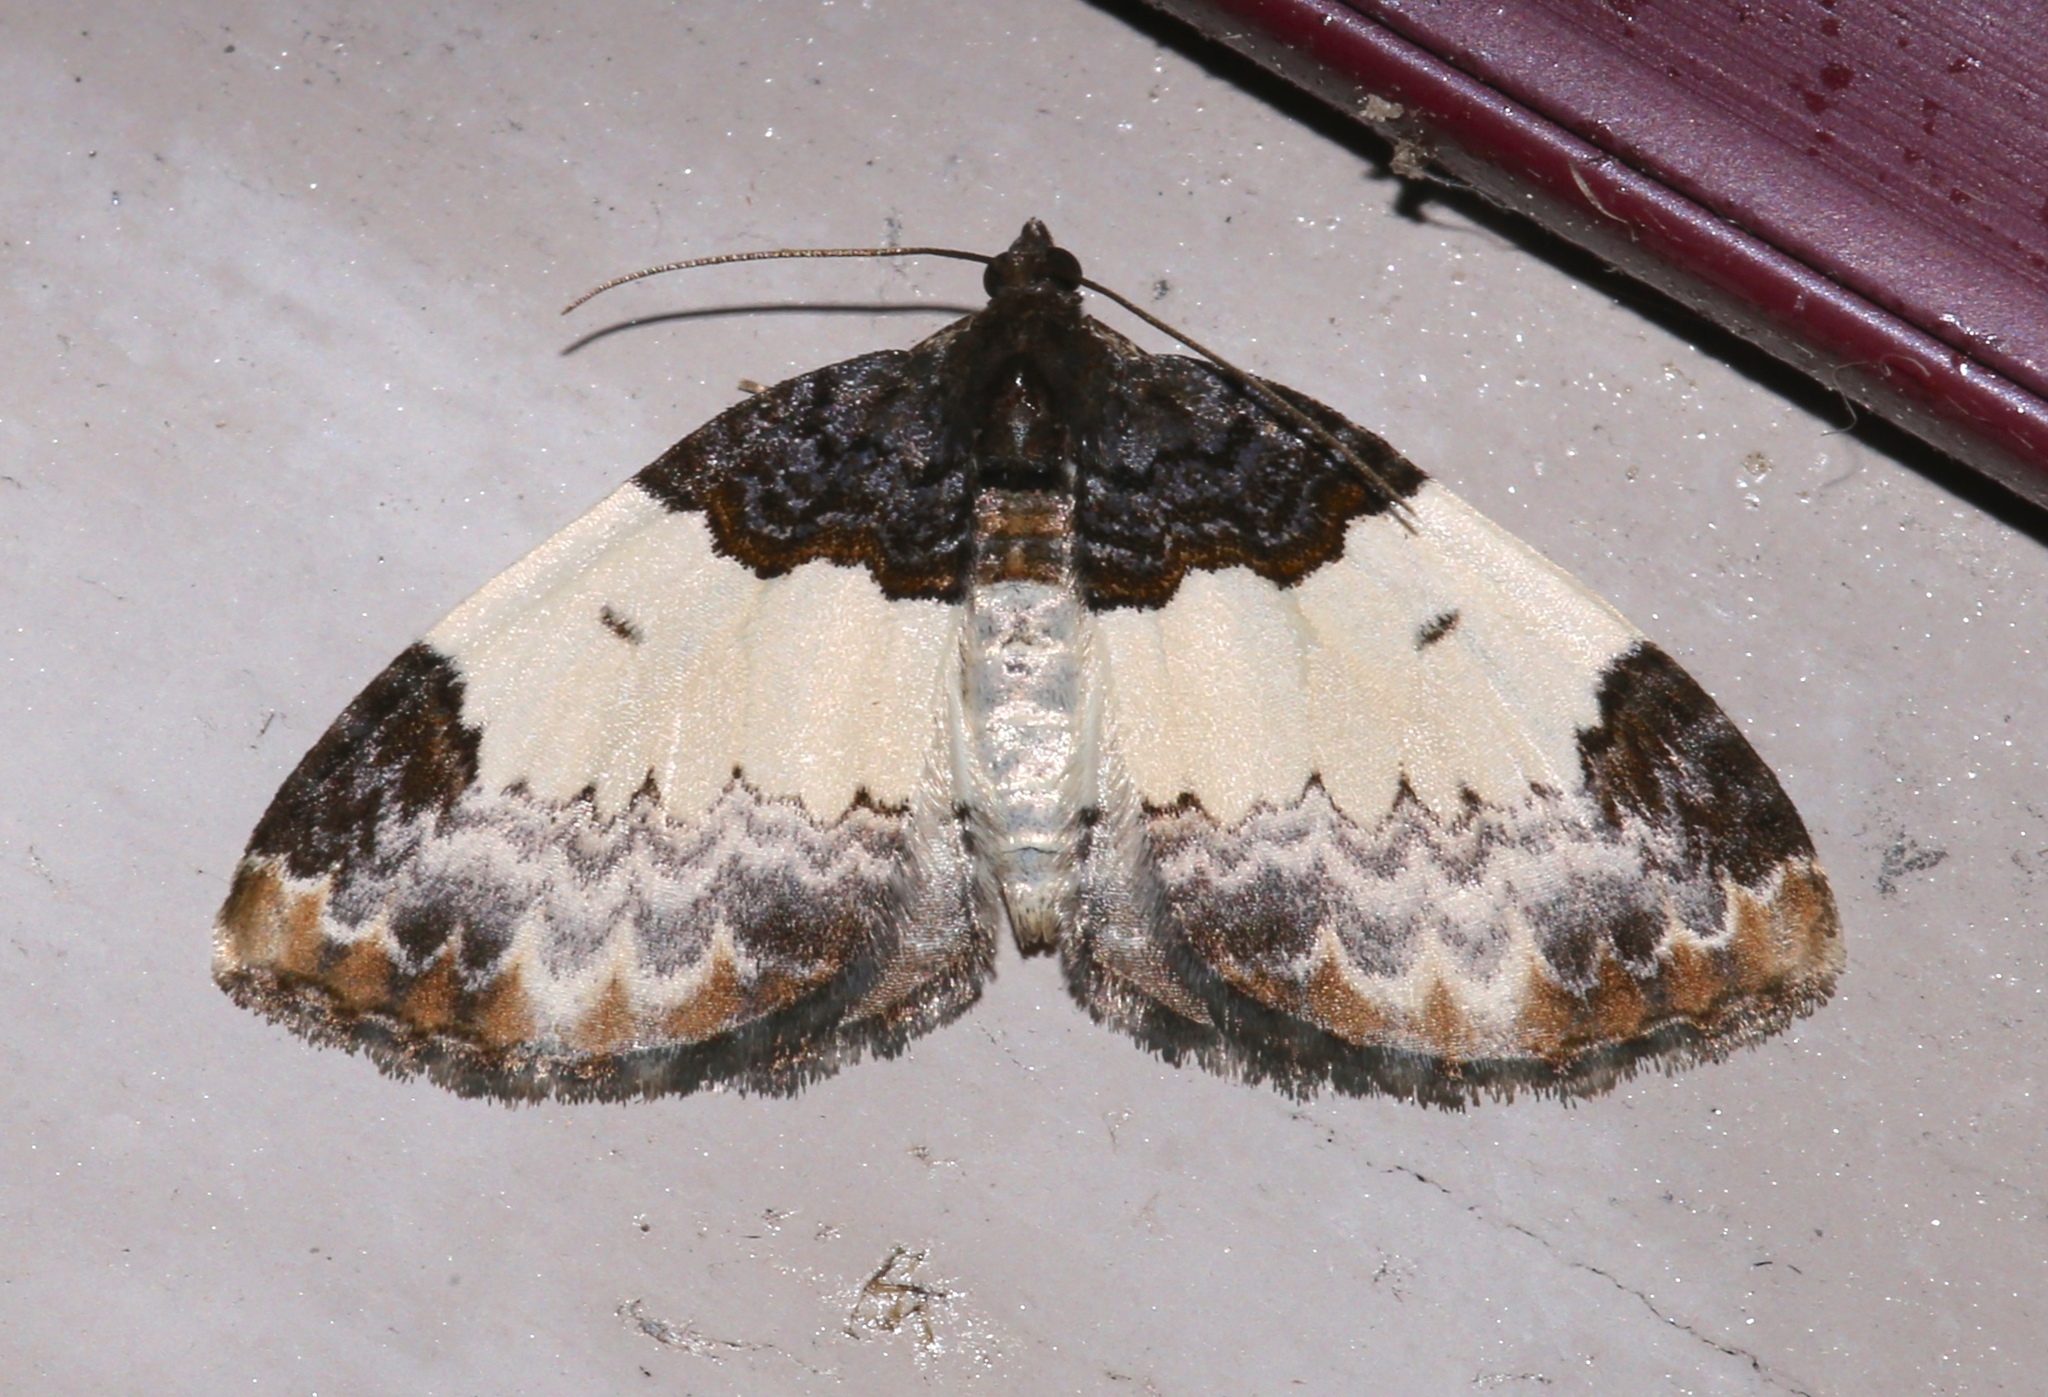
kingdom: Animalia
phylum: Arthropoda
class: Insecta
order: Lepidoptera
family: Geometridae
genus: Mesoleuca
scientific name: Mesoleuca ruficillata
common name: White-ribboned carpet moth
